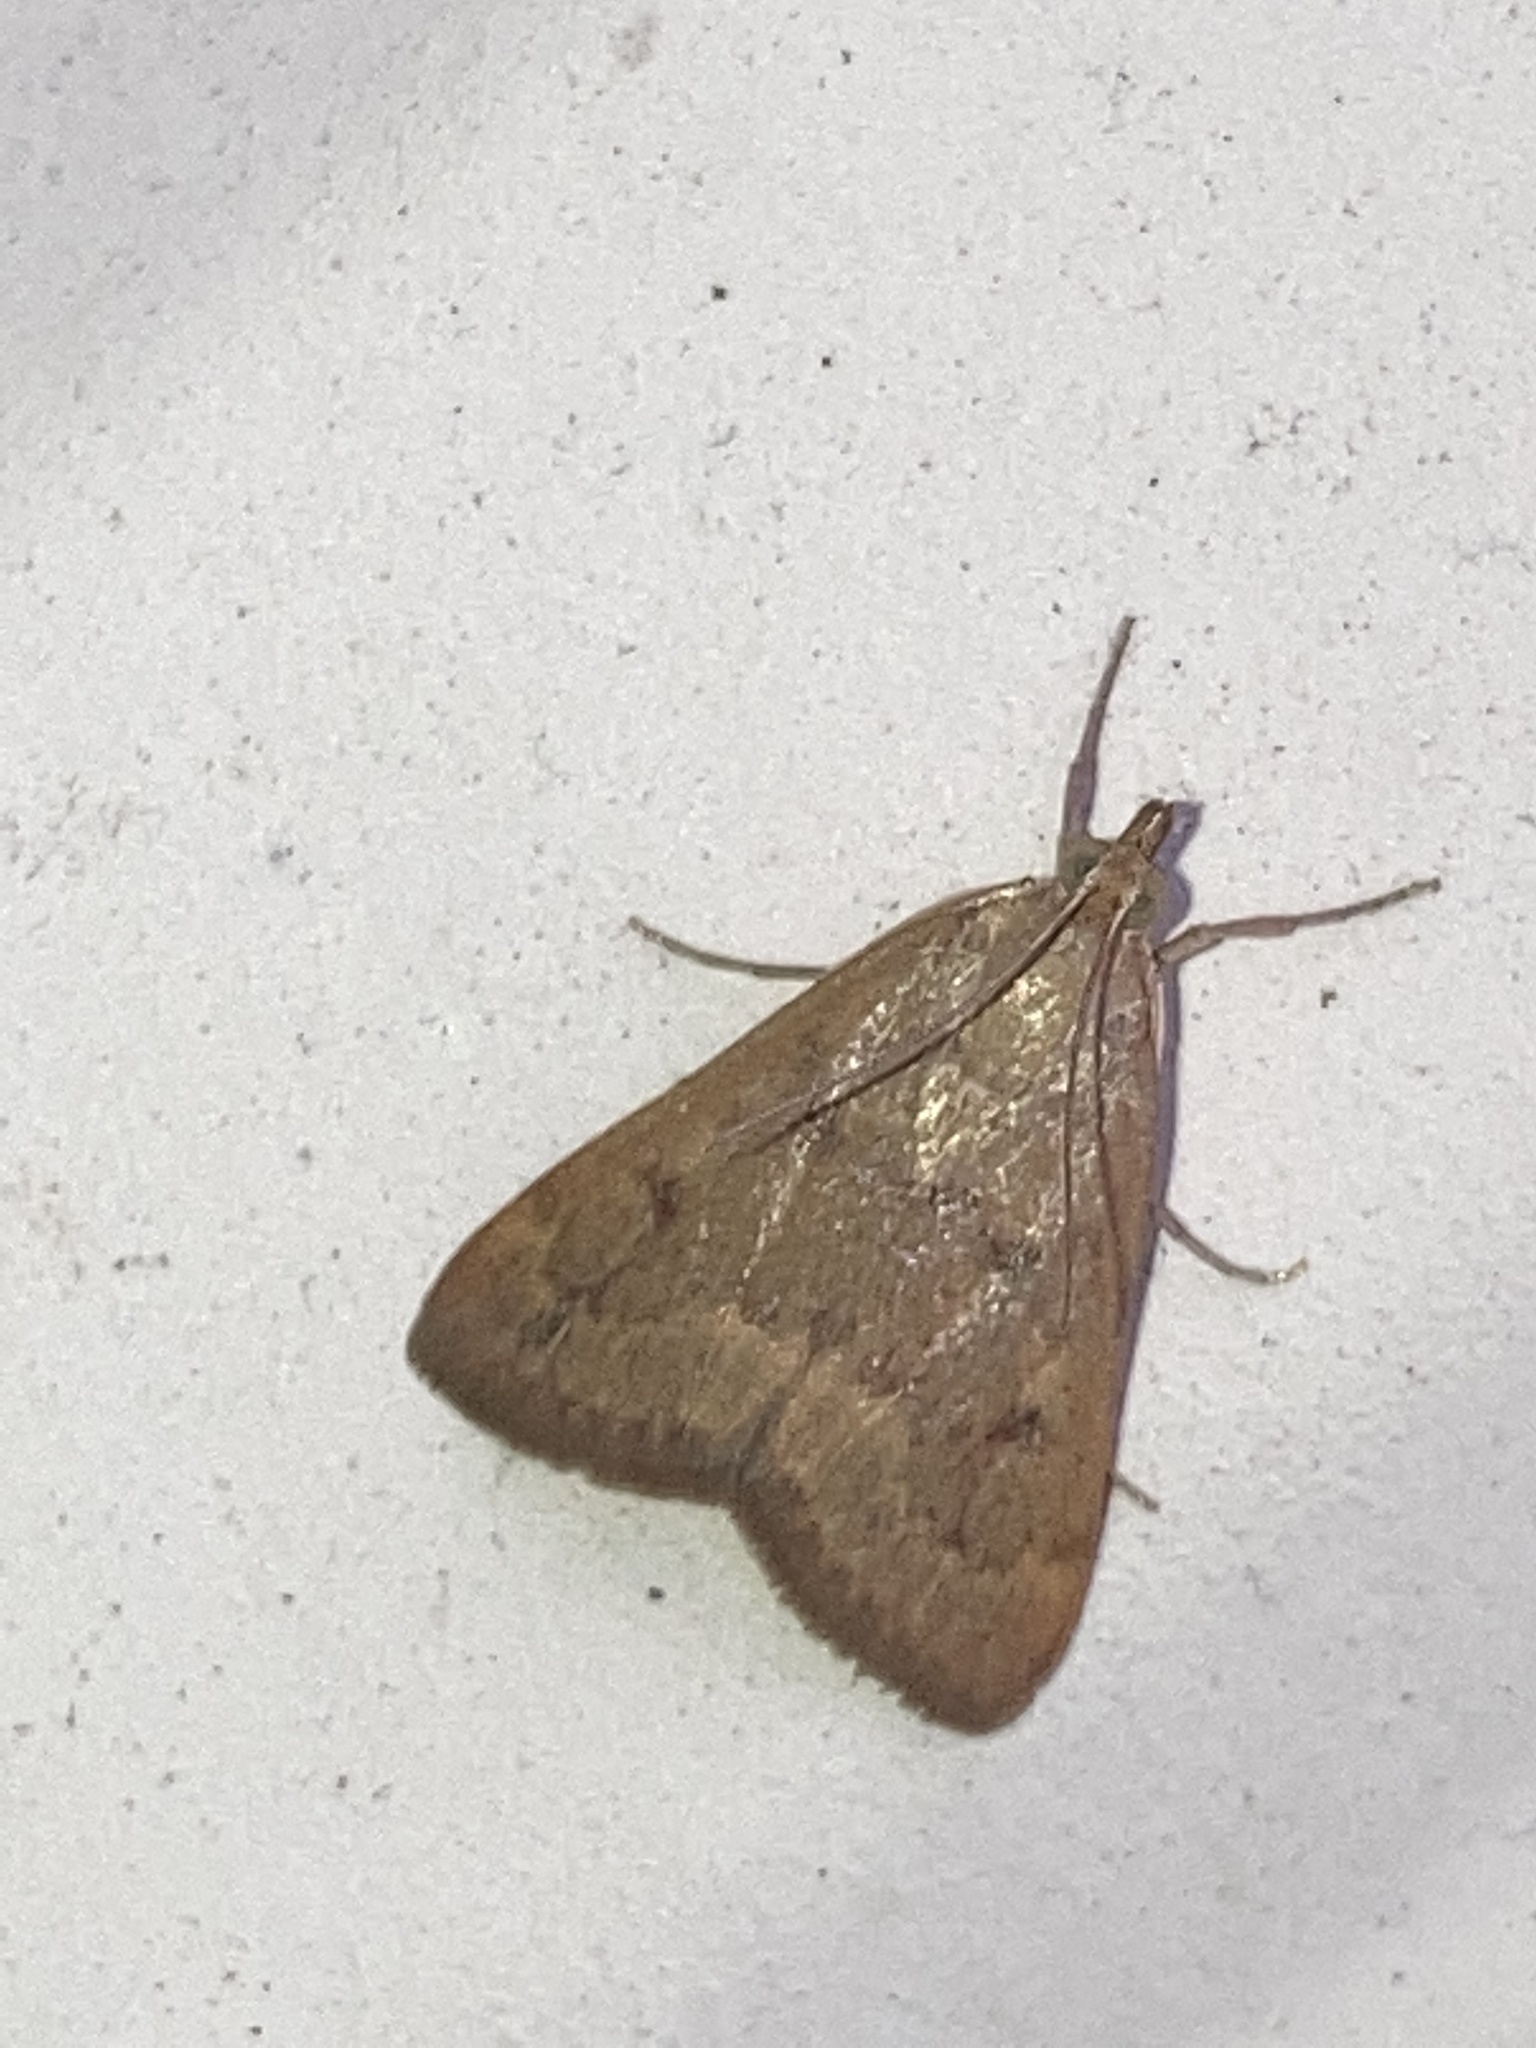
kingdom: Animalia
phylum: Arthropoda
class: Insecta
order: Lepidoptera
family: Crambidae
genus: Achyra
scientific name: Achyra rantalis
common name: Garden webworm
